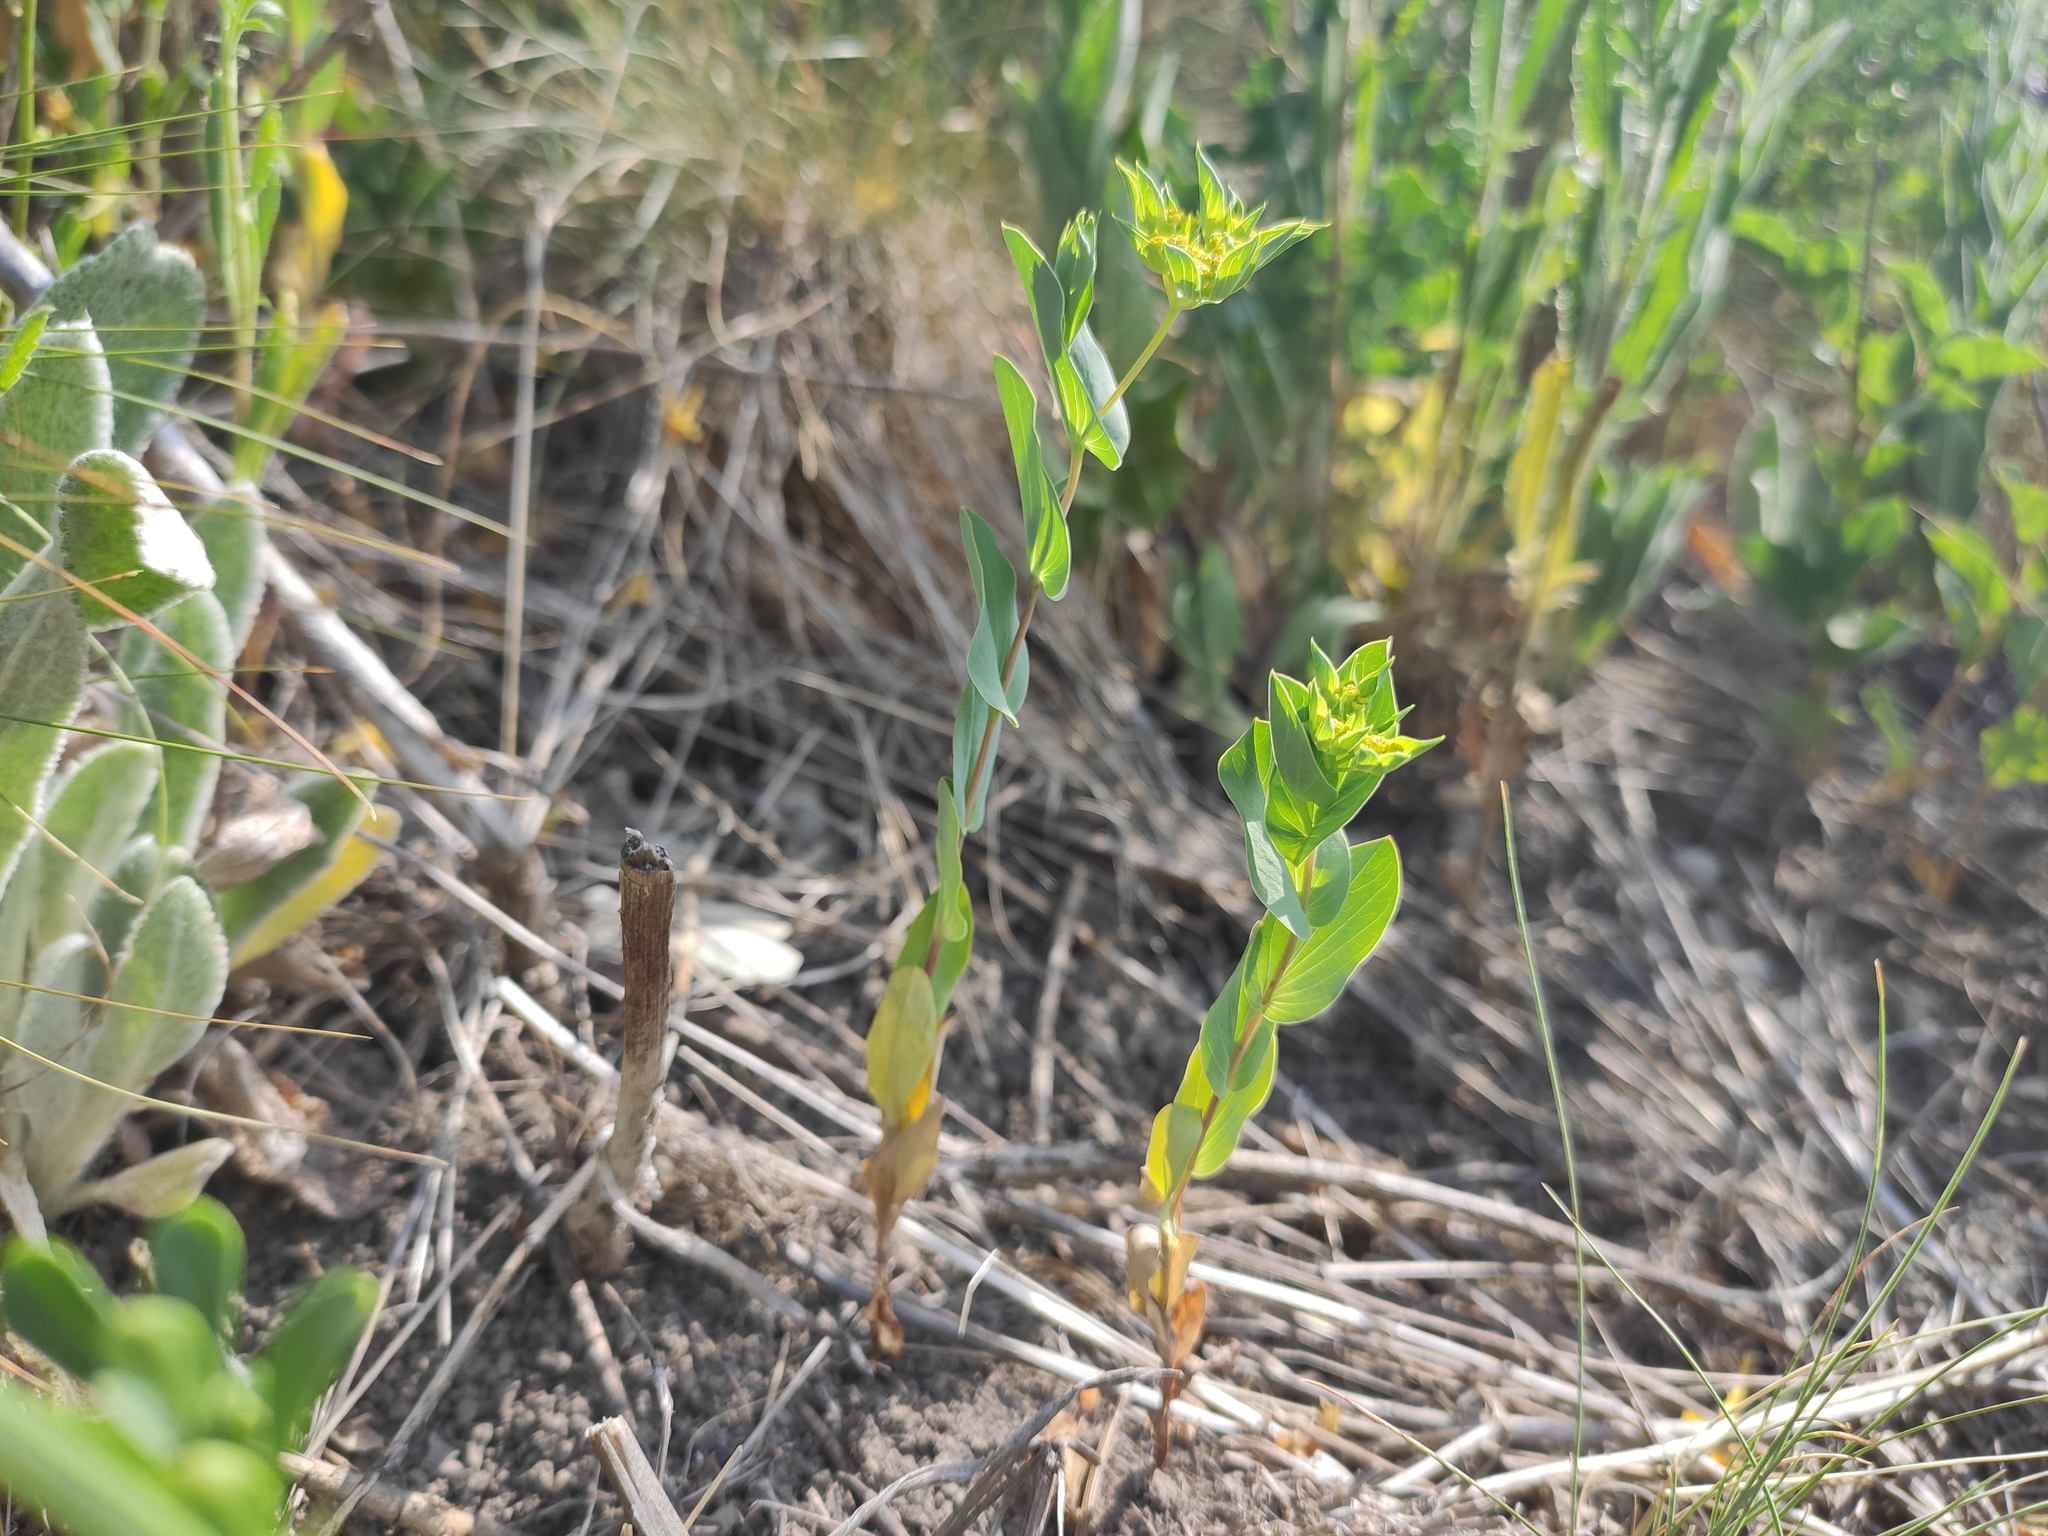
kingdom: Plantae
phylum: Tracheophyta
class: Magnoliopsida
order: Apiales
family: Apiaceae
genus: Bupleurum
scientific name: Bupleurum rotundifolium
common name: Thorow-wax
